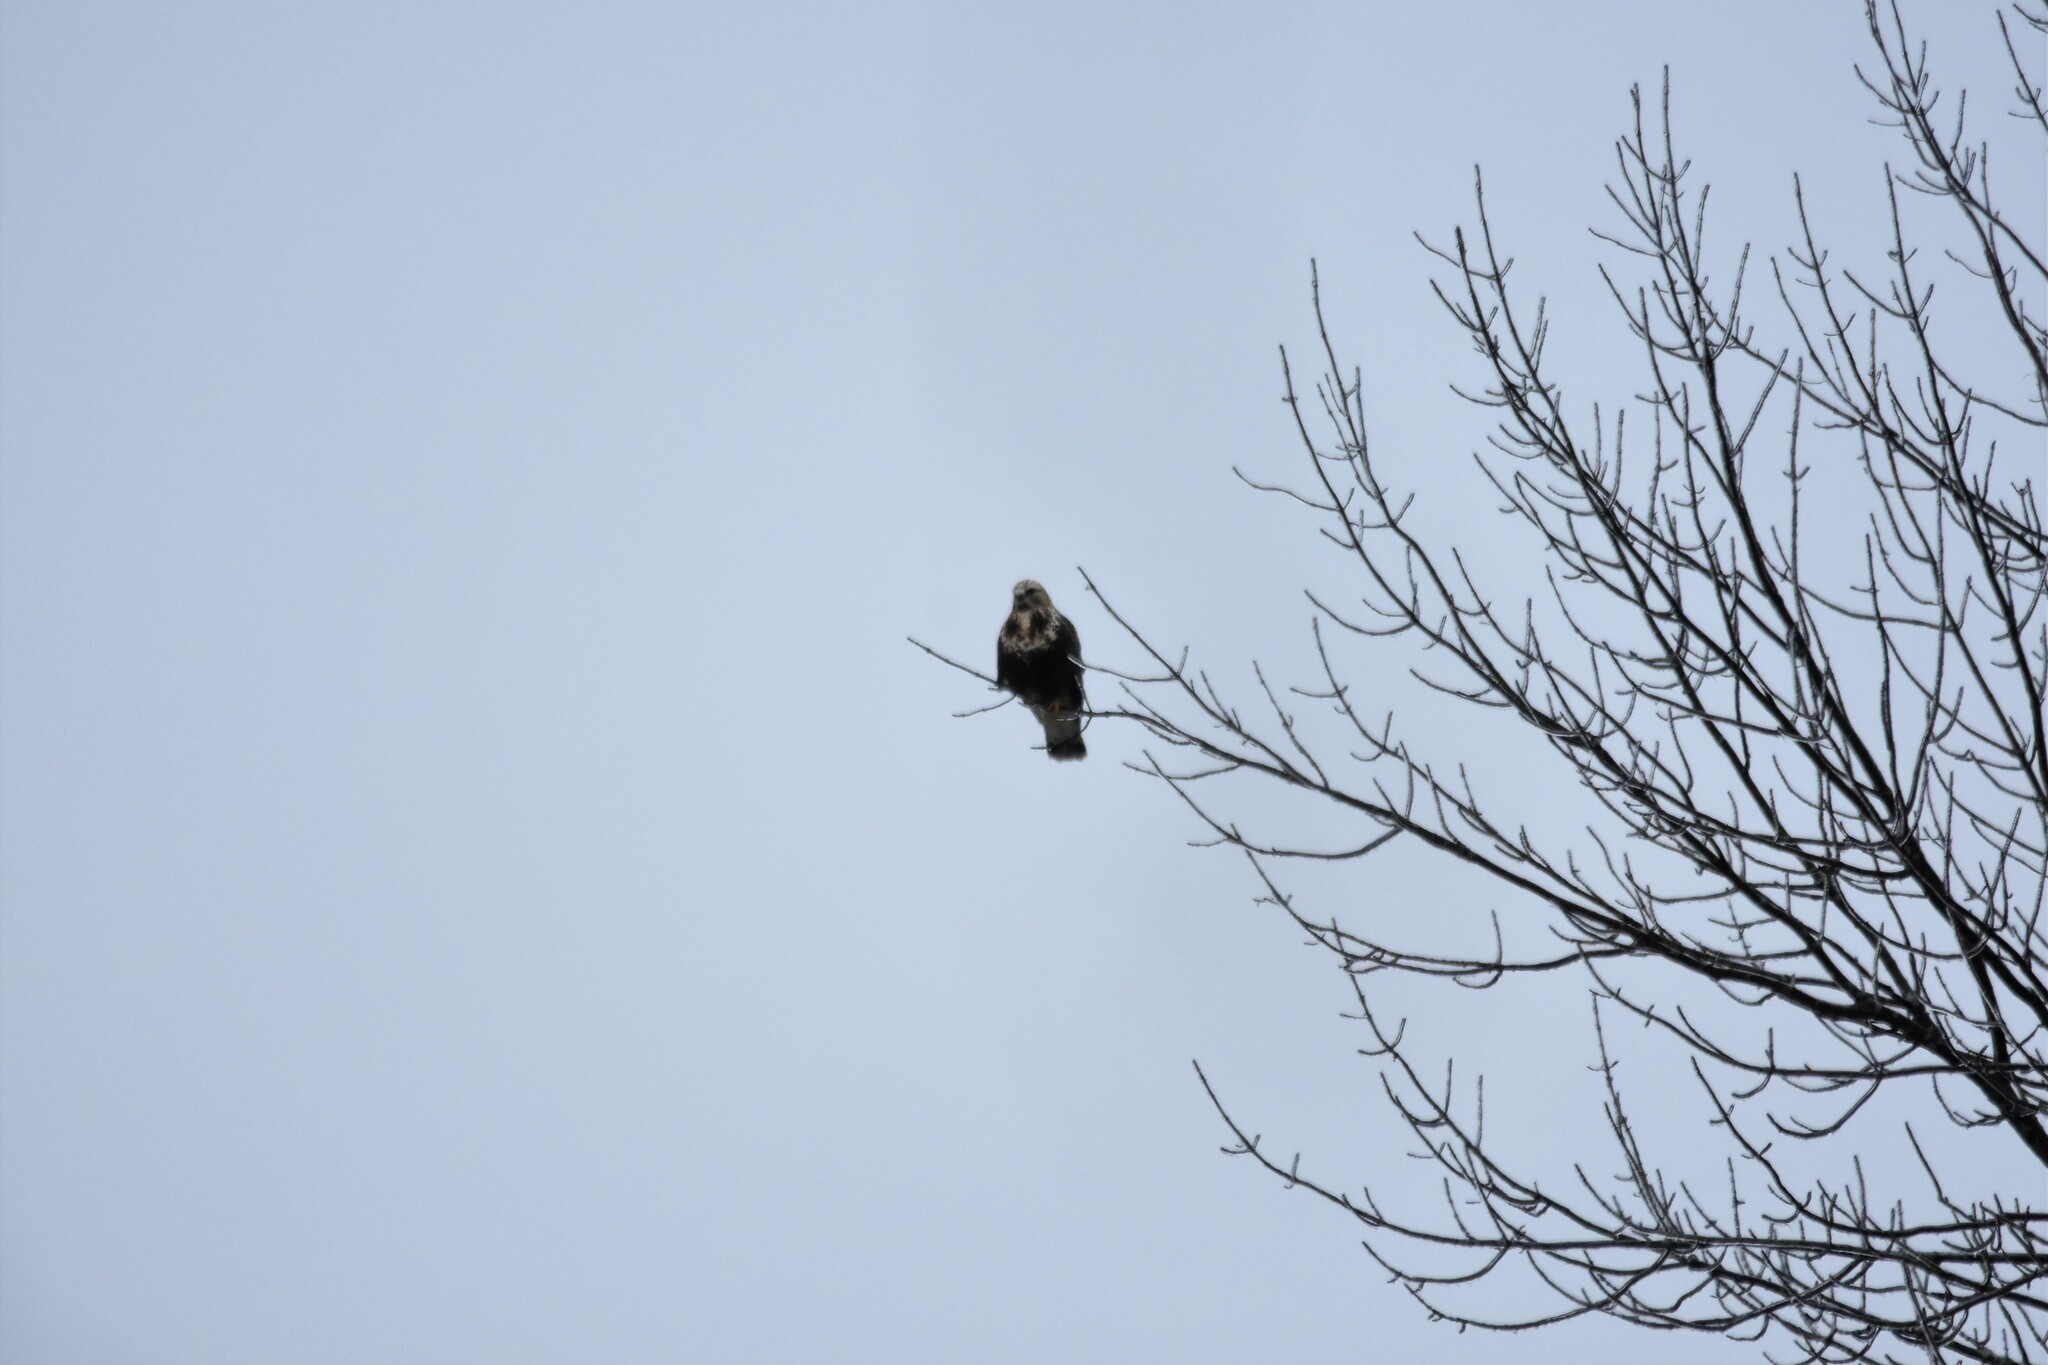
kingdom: Animalia
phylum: Chordata
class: Aves
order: Accipitriformes
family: Accipitridae
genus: Buteo
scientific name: Buteo lagopus
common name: Rough-legged buzzard
